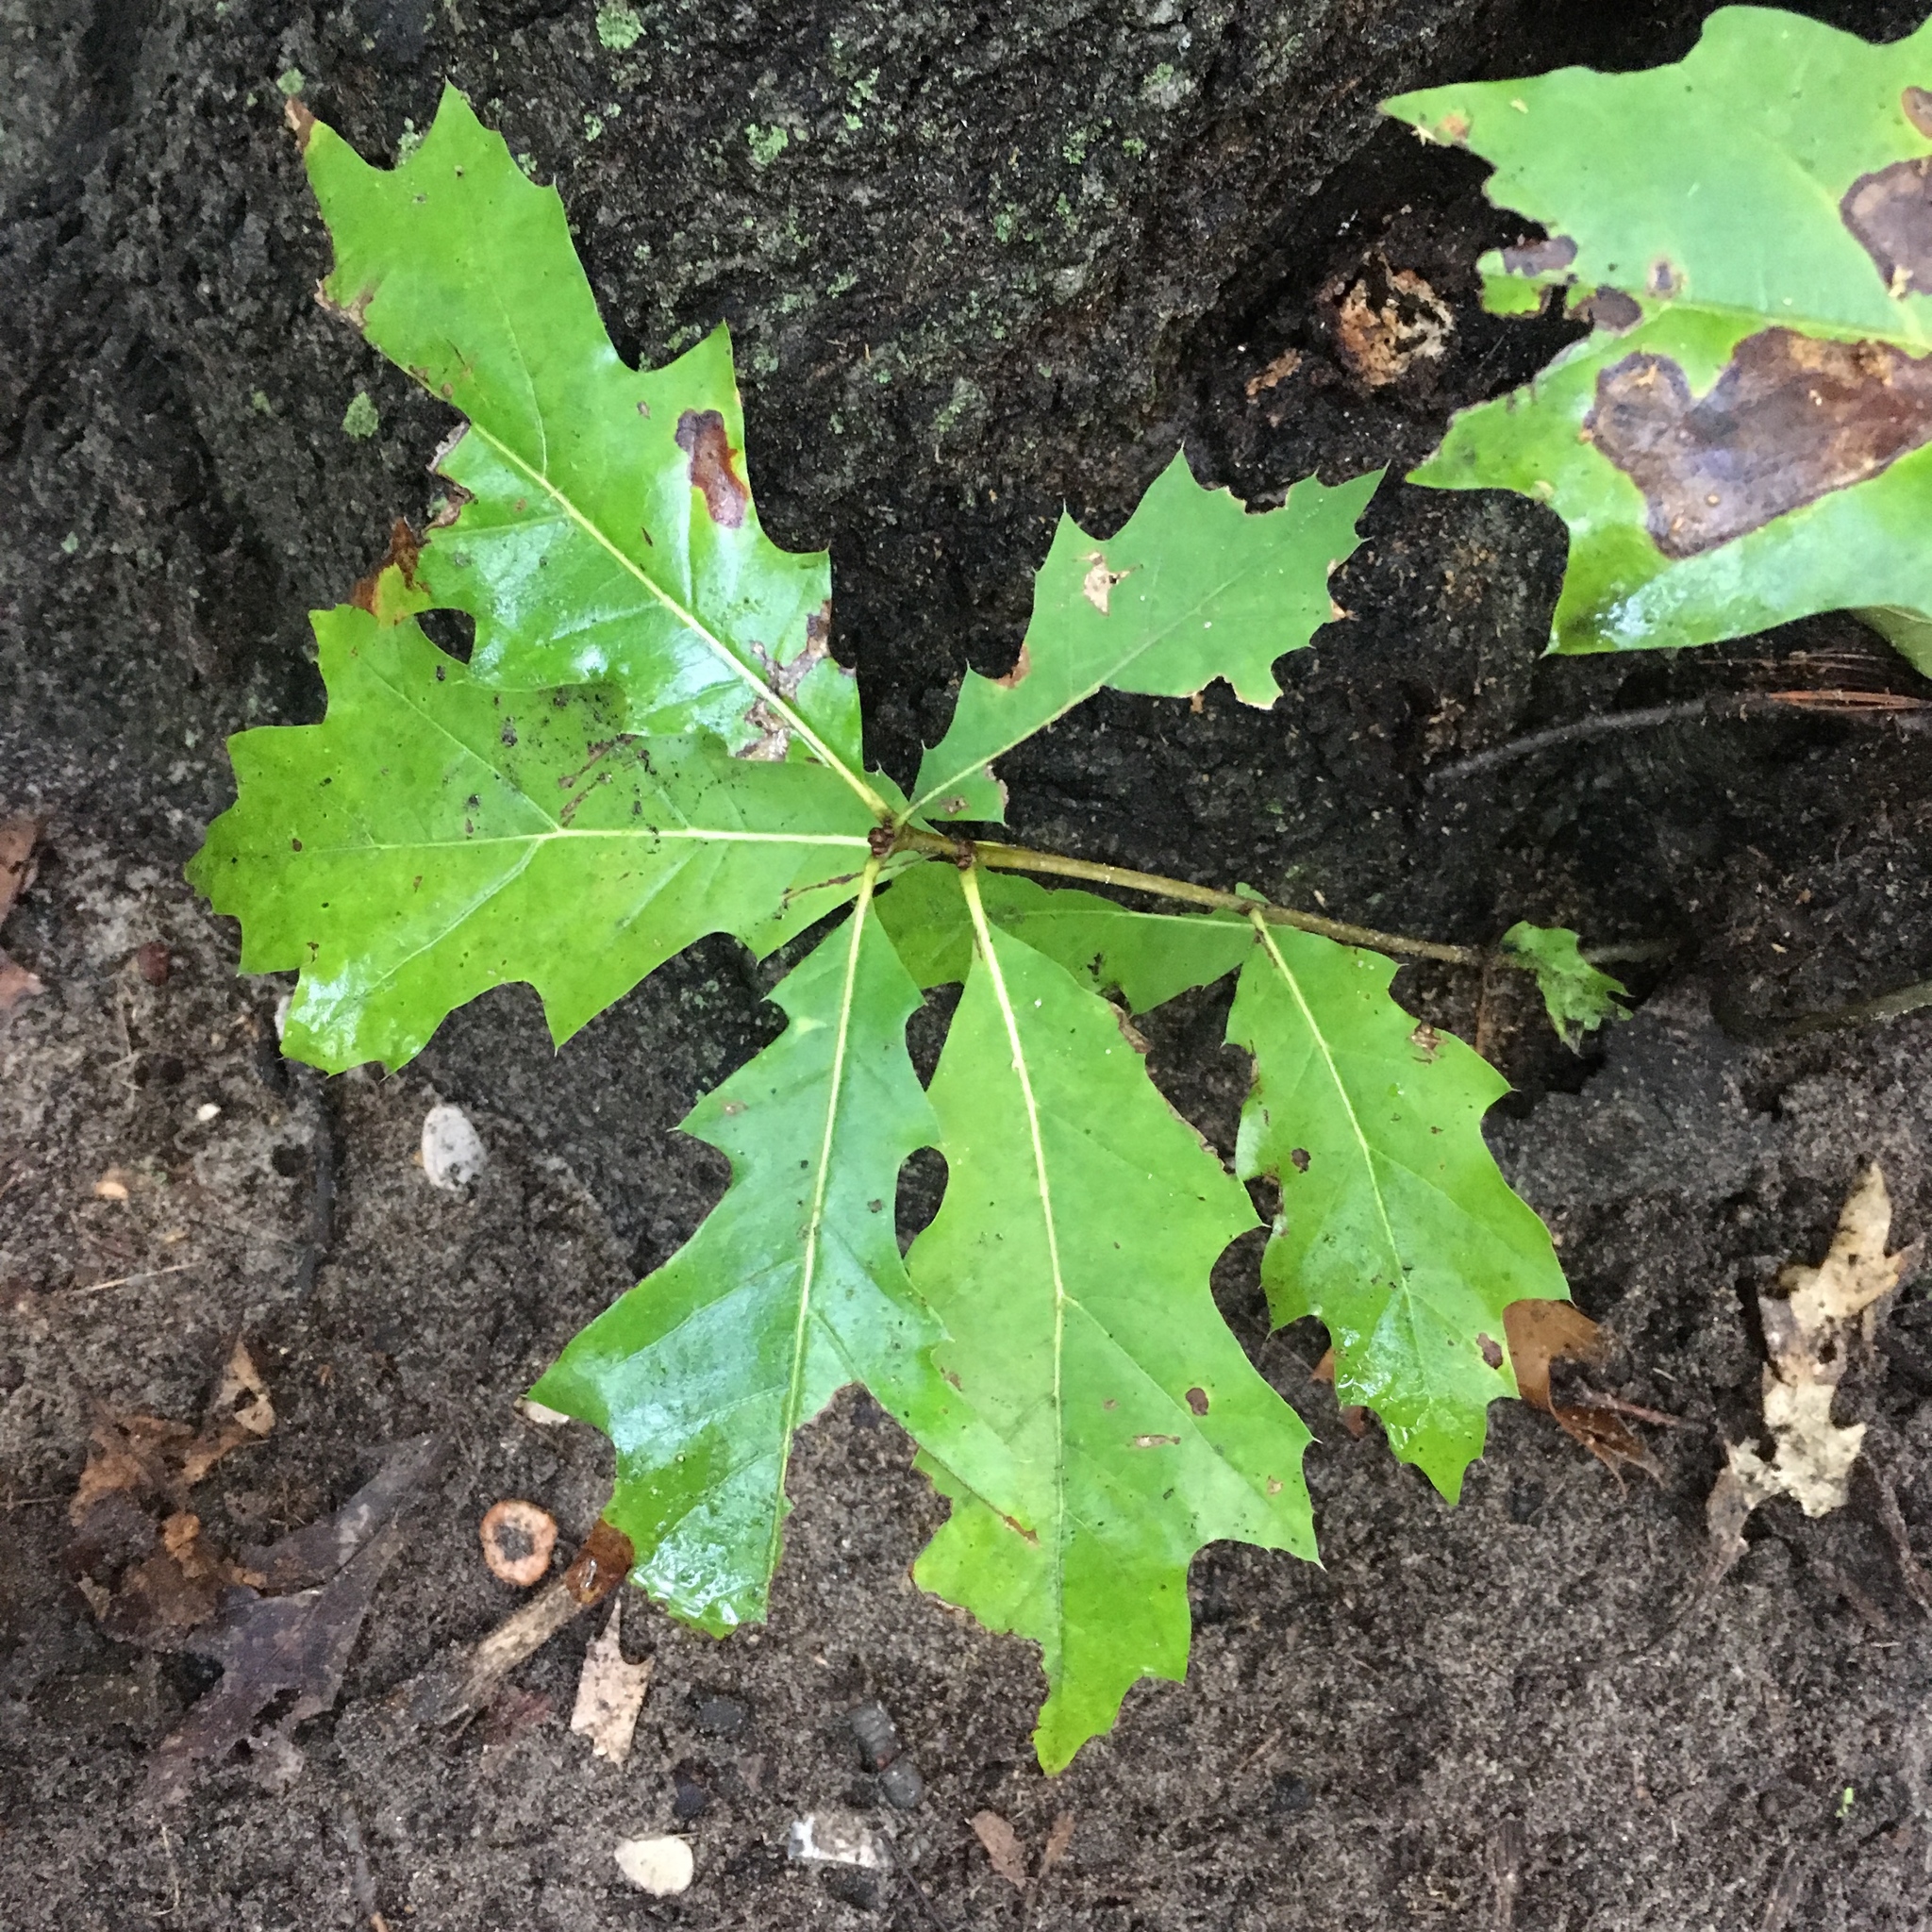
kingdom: Plantae
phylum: Tracheophyta
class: Magnoliopsida
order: Fagales
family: Fagaceae
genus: Quercus
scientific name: Quercus rubra
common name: Red oak
